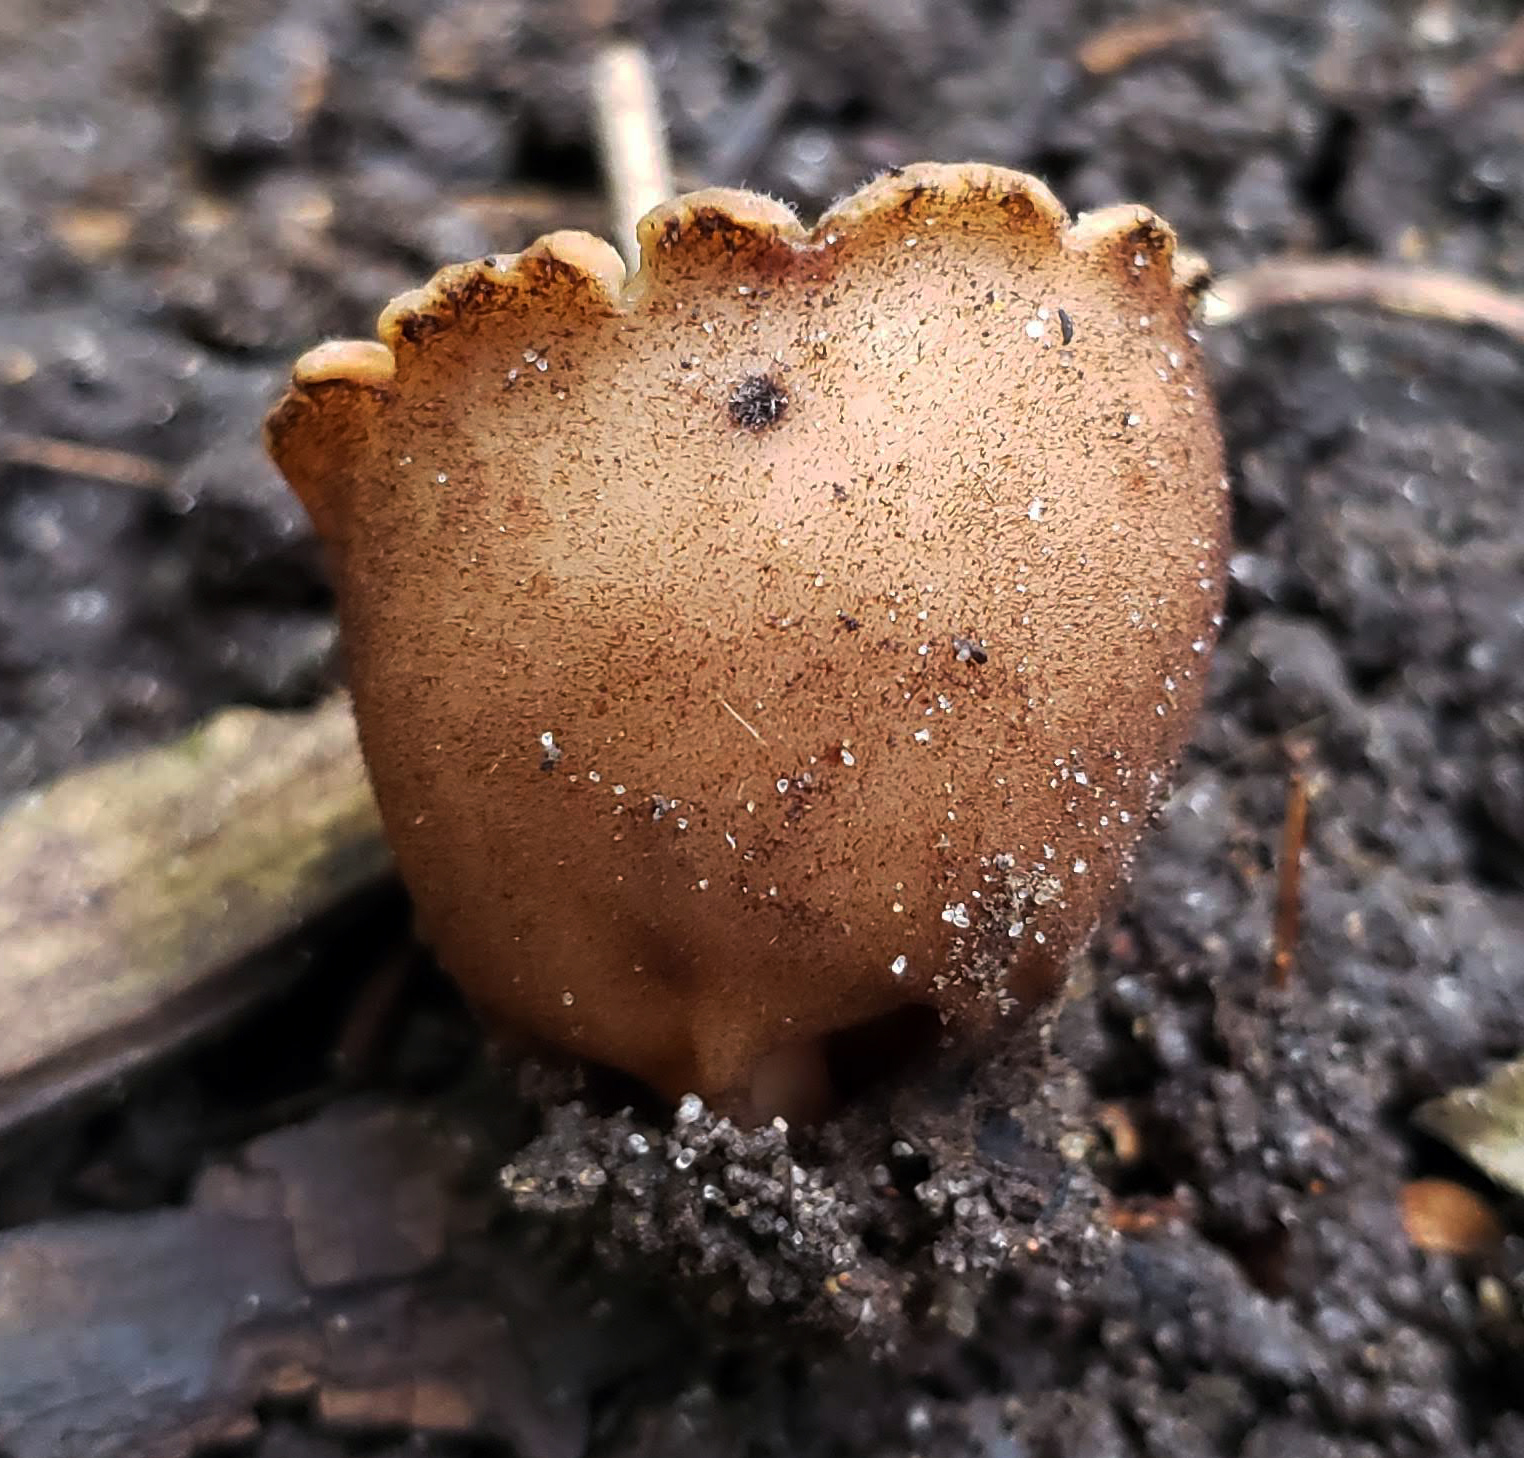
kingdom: Fungi
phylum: Ascomycota
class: Pezizomycetes
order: Pezizales
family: Pyronemataceae
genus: Jafnea
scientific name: Jafnea semitosta
